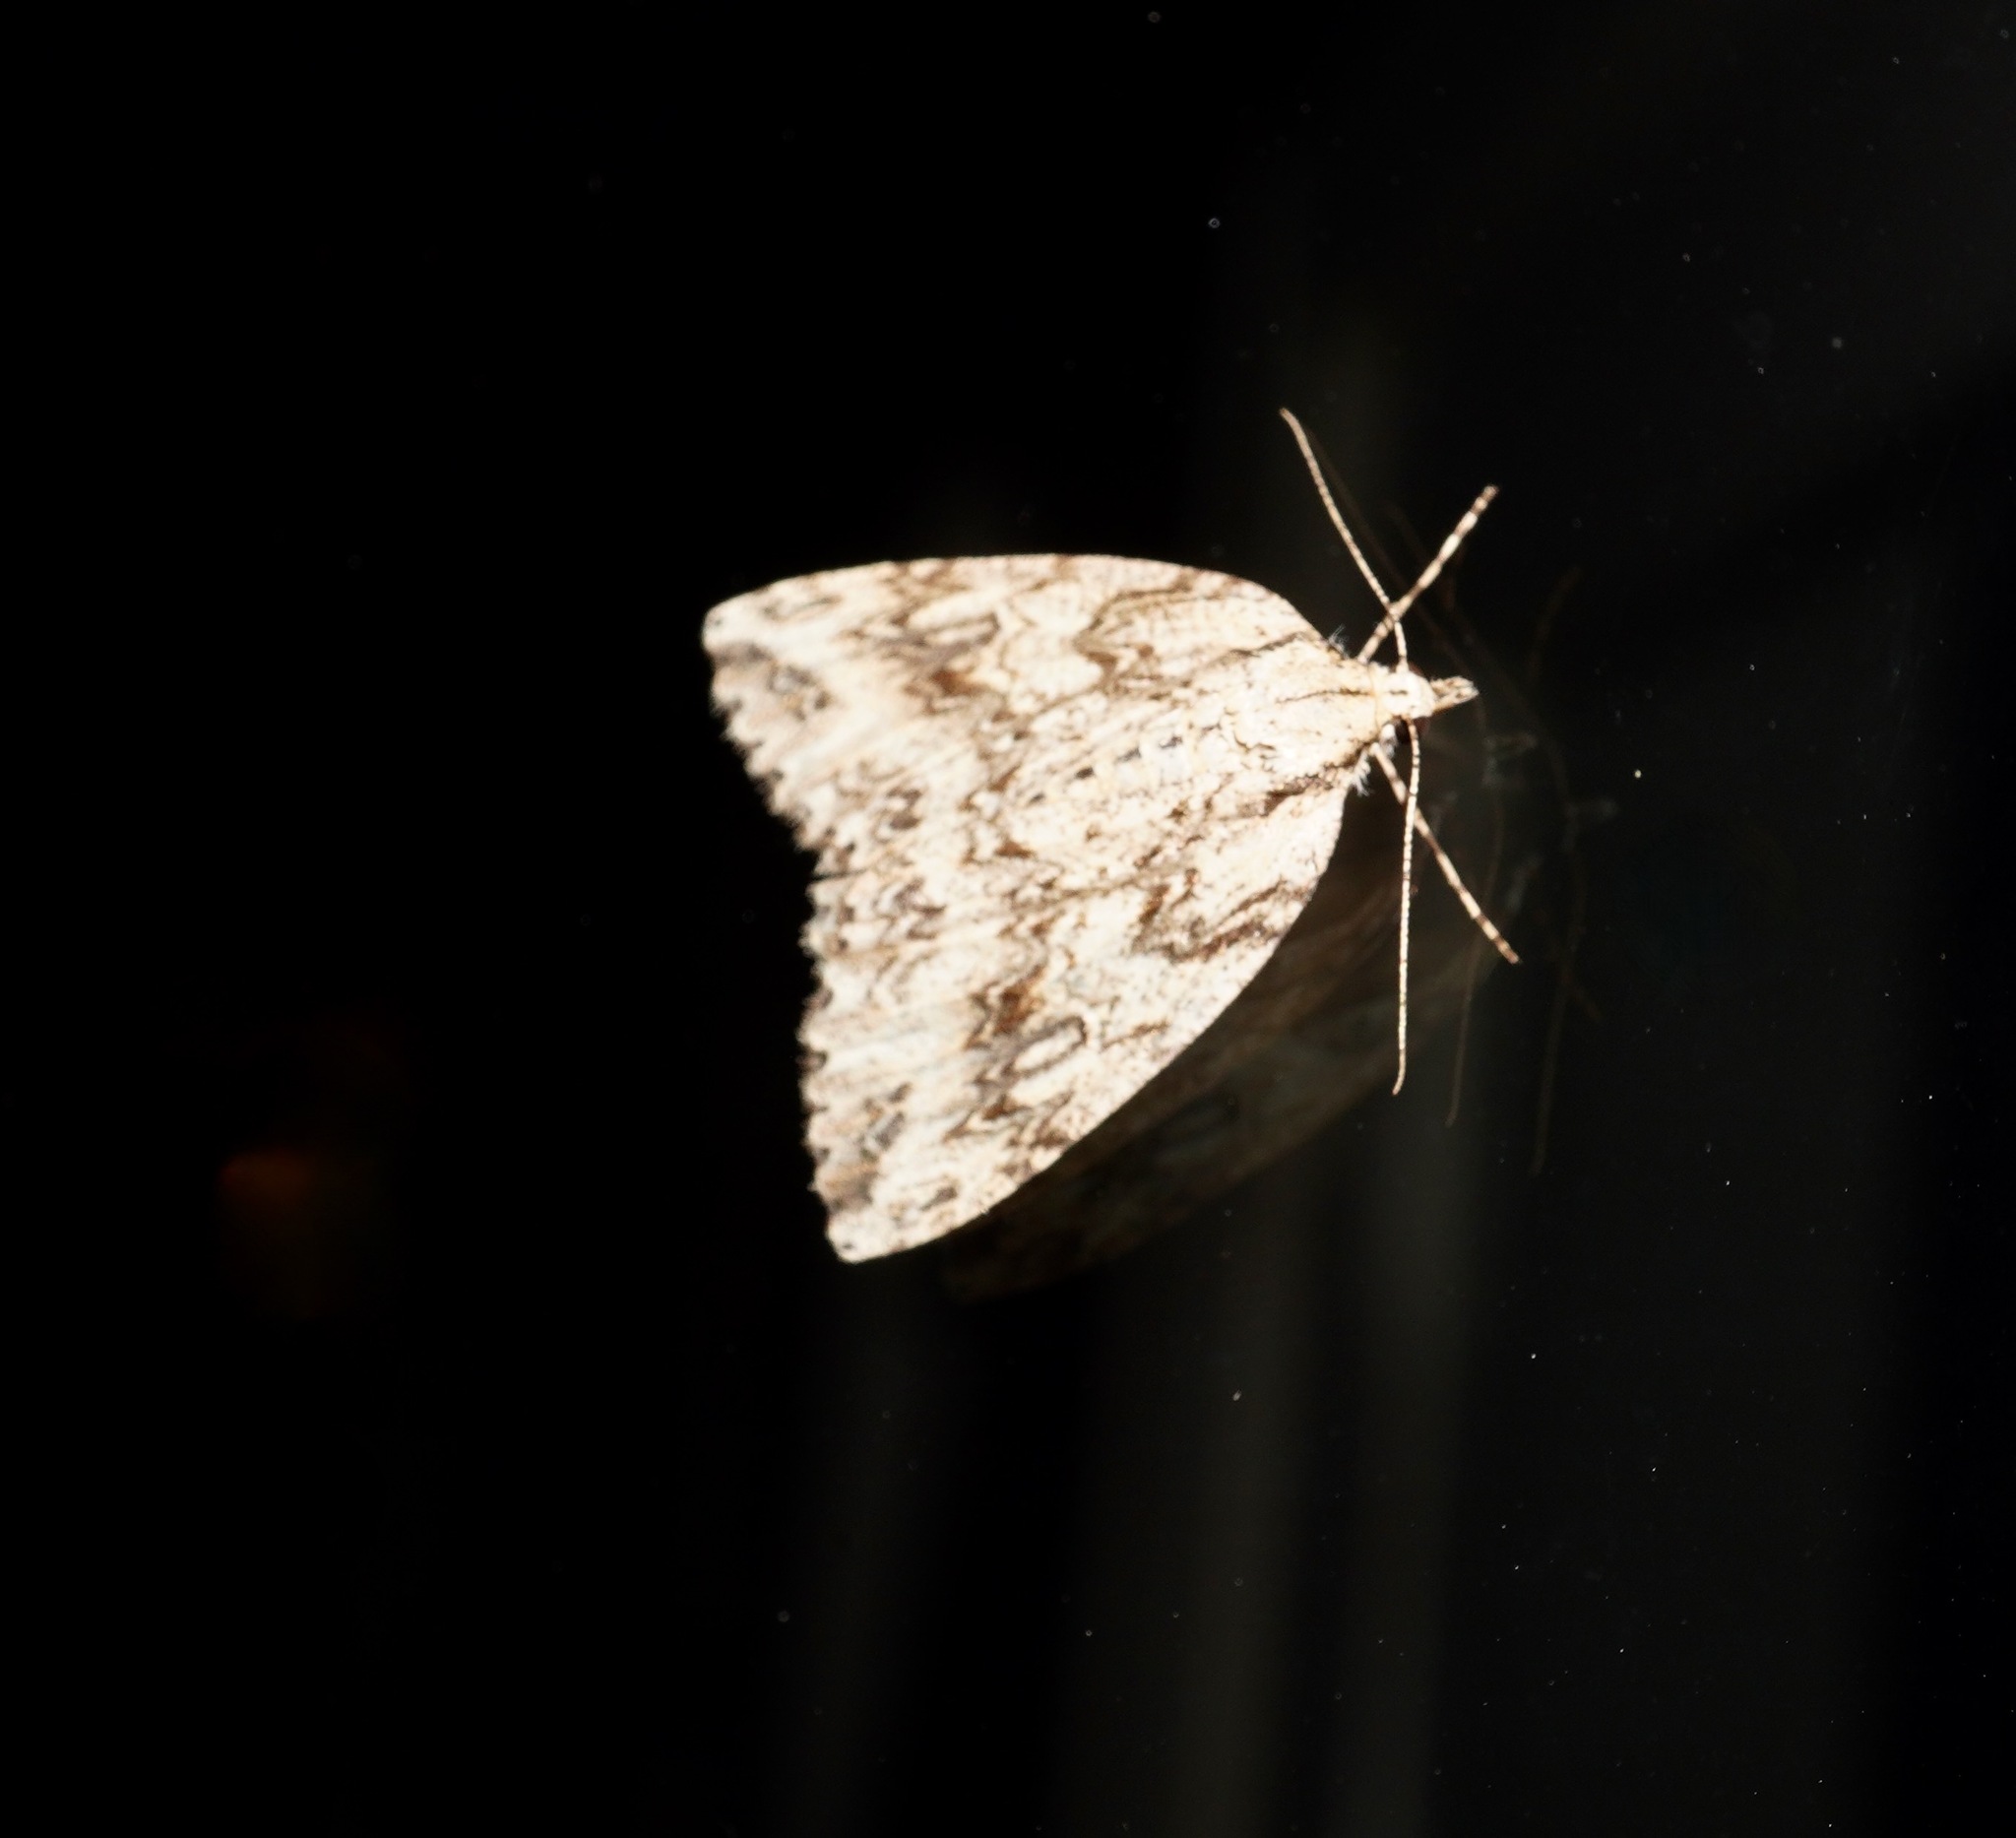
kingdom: Animalia
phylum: Arthropoda
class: Insecta
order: Lepidoptera
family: Geometridae
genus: Pseudocoremia
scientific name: Pseudocoremia rudisata
